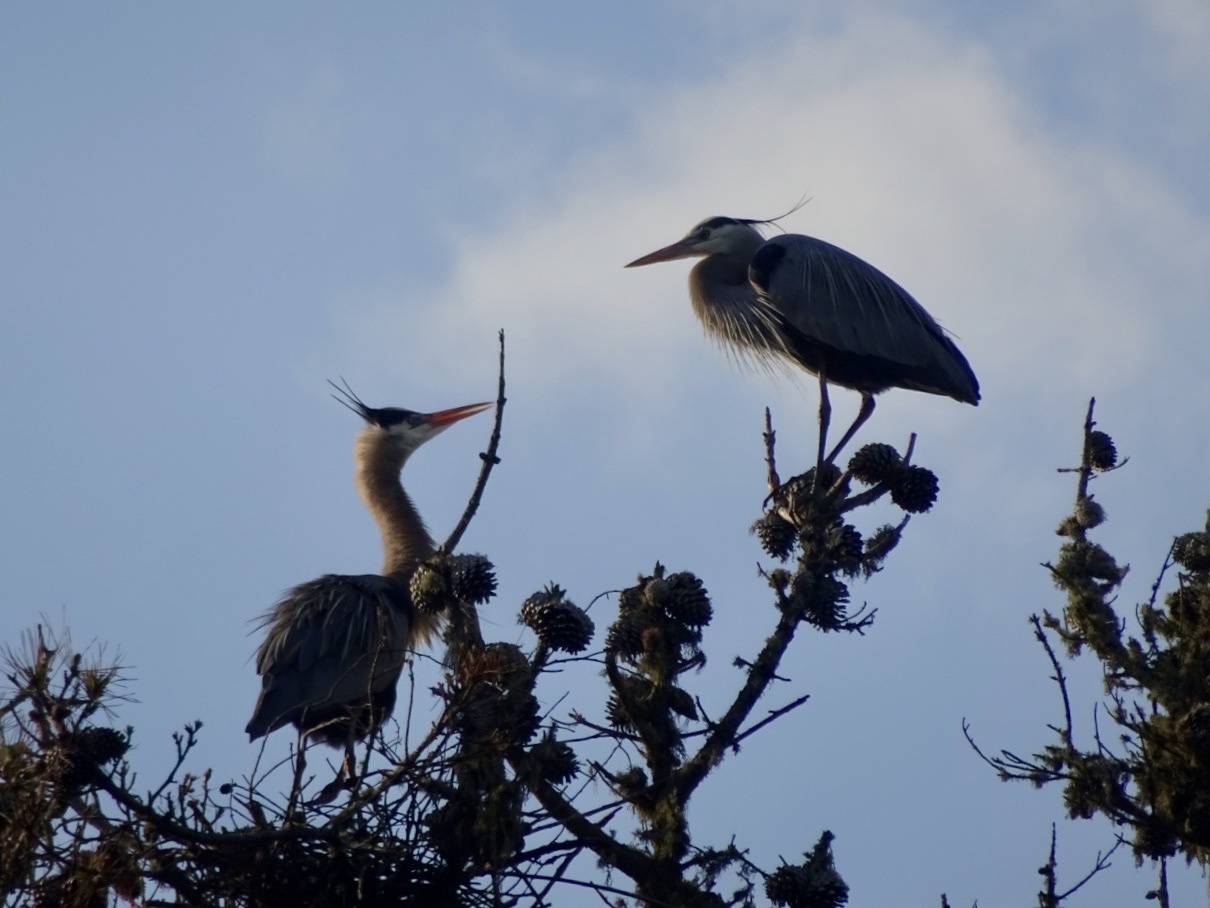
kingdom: Animalia
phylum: Chordata
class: Aves
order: Pelecaniformes
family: Ardeidae
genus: Ardea
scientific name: Ardea herodias
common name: Great blue heron
